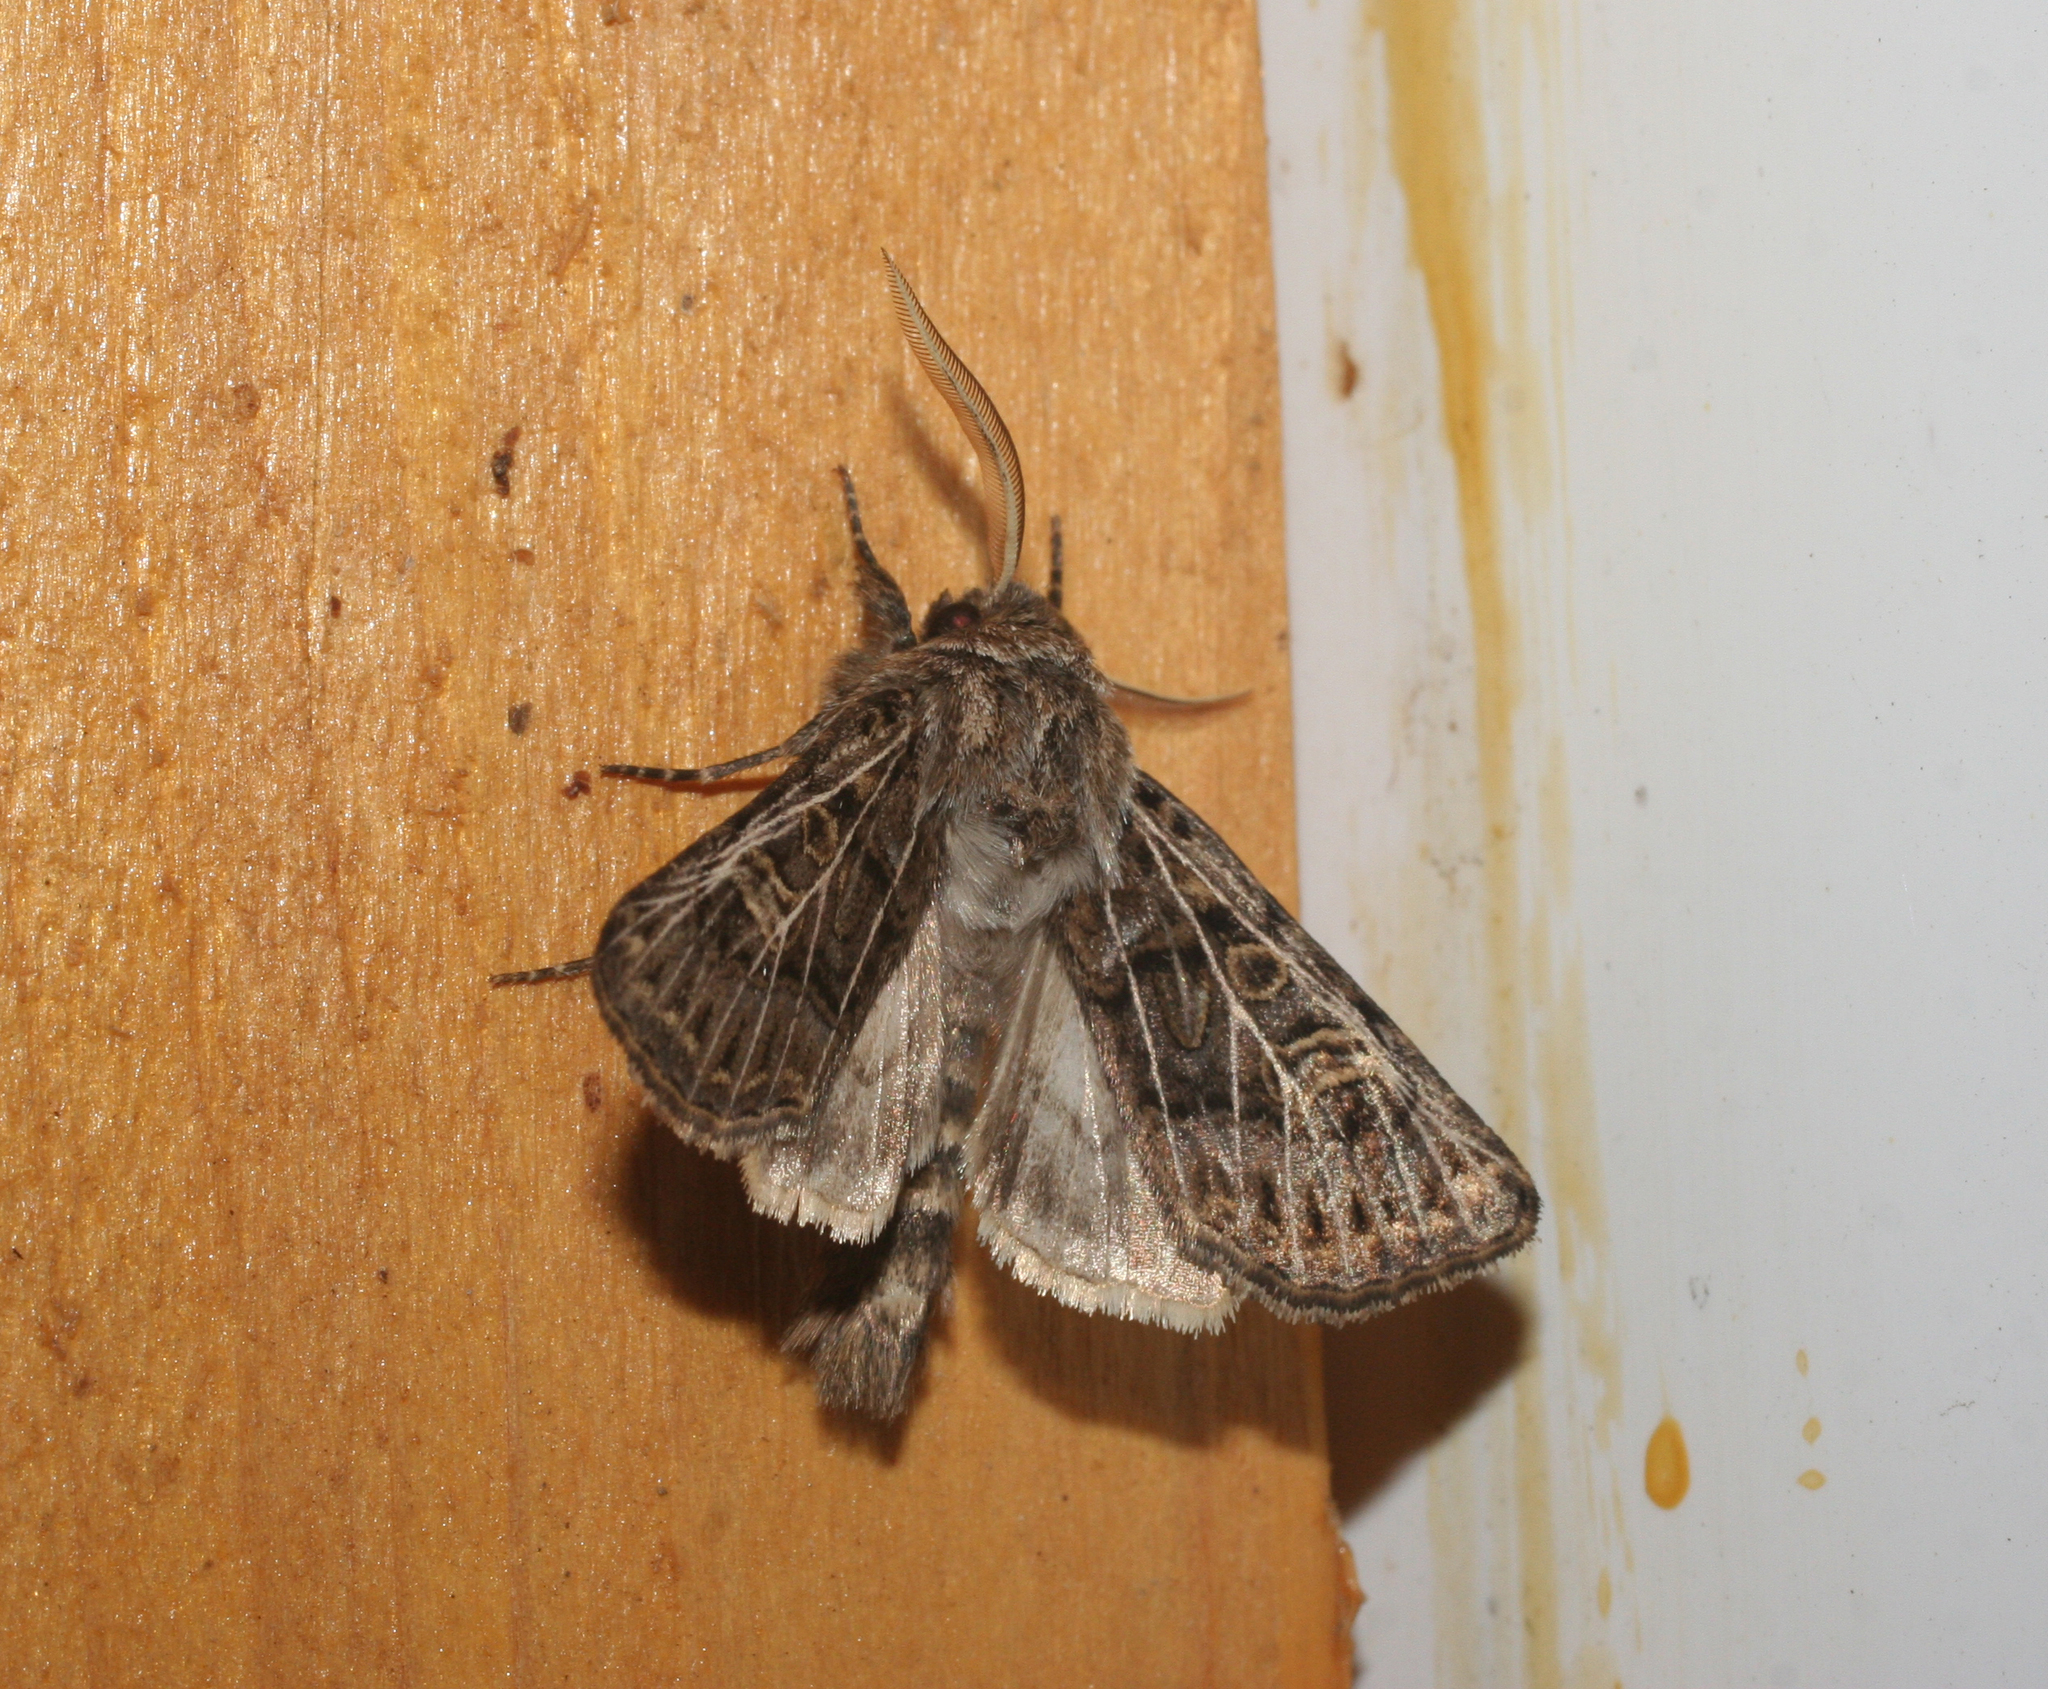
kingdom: Animalia
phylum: Arthropoda
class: Insecta
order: Lepidoptera
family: Noctuidae
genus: Tholera
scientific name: Tholera decimalis
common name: Feathered gothic
